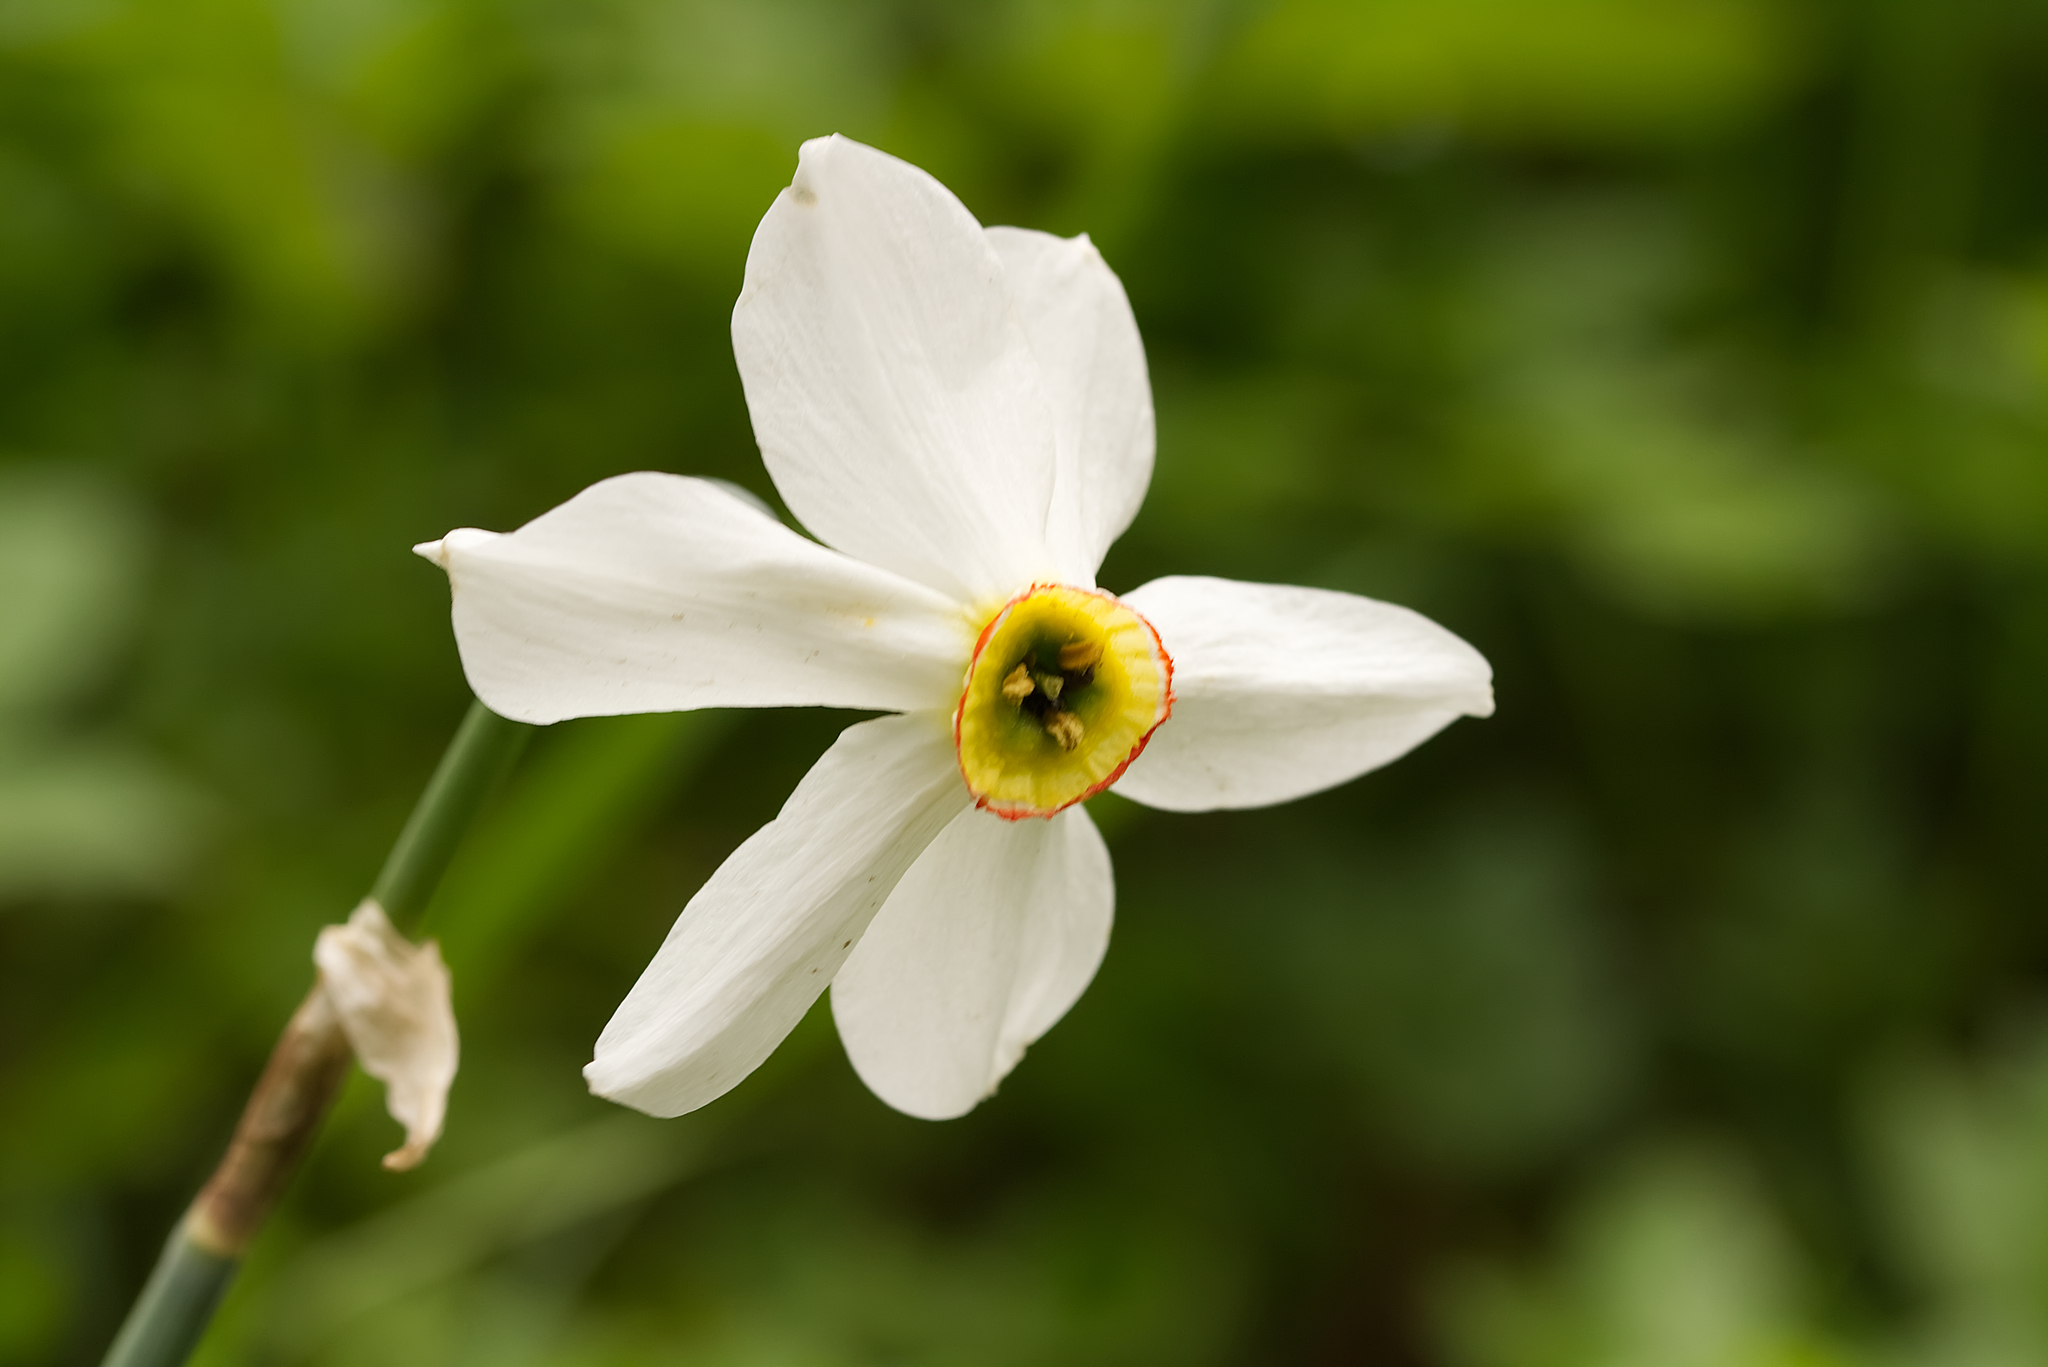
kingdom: Plantae
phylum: Tracheophyta
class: Liliopsida
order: Asparagales
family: Amaryllidaceae
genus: Narcissus
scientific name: Narcissus poeticus
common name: Pheasant's-eye daffodil
